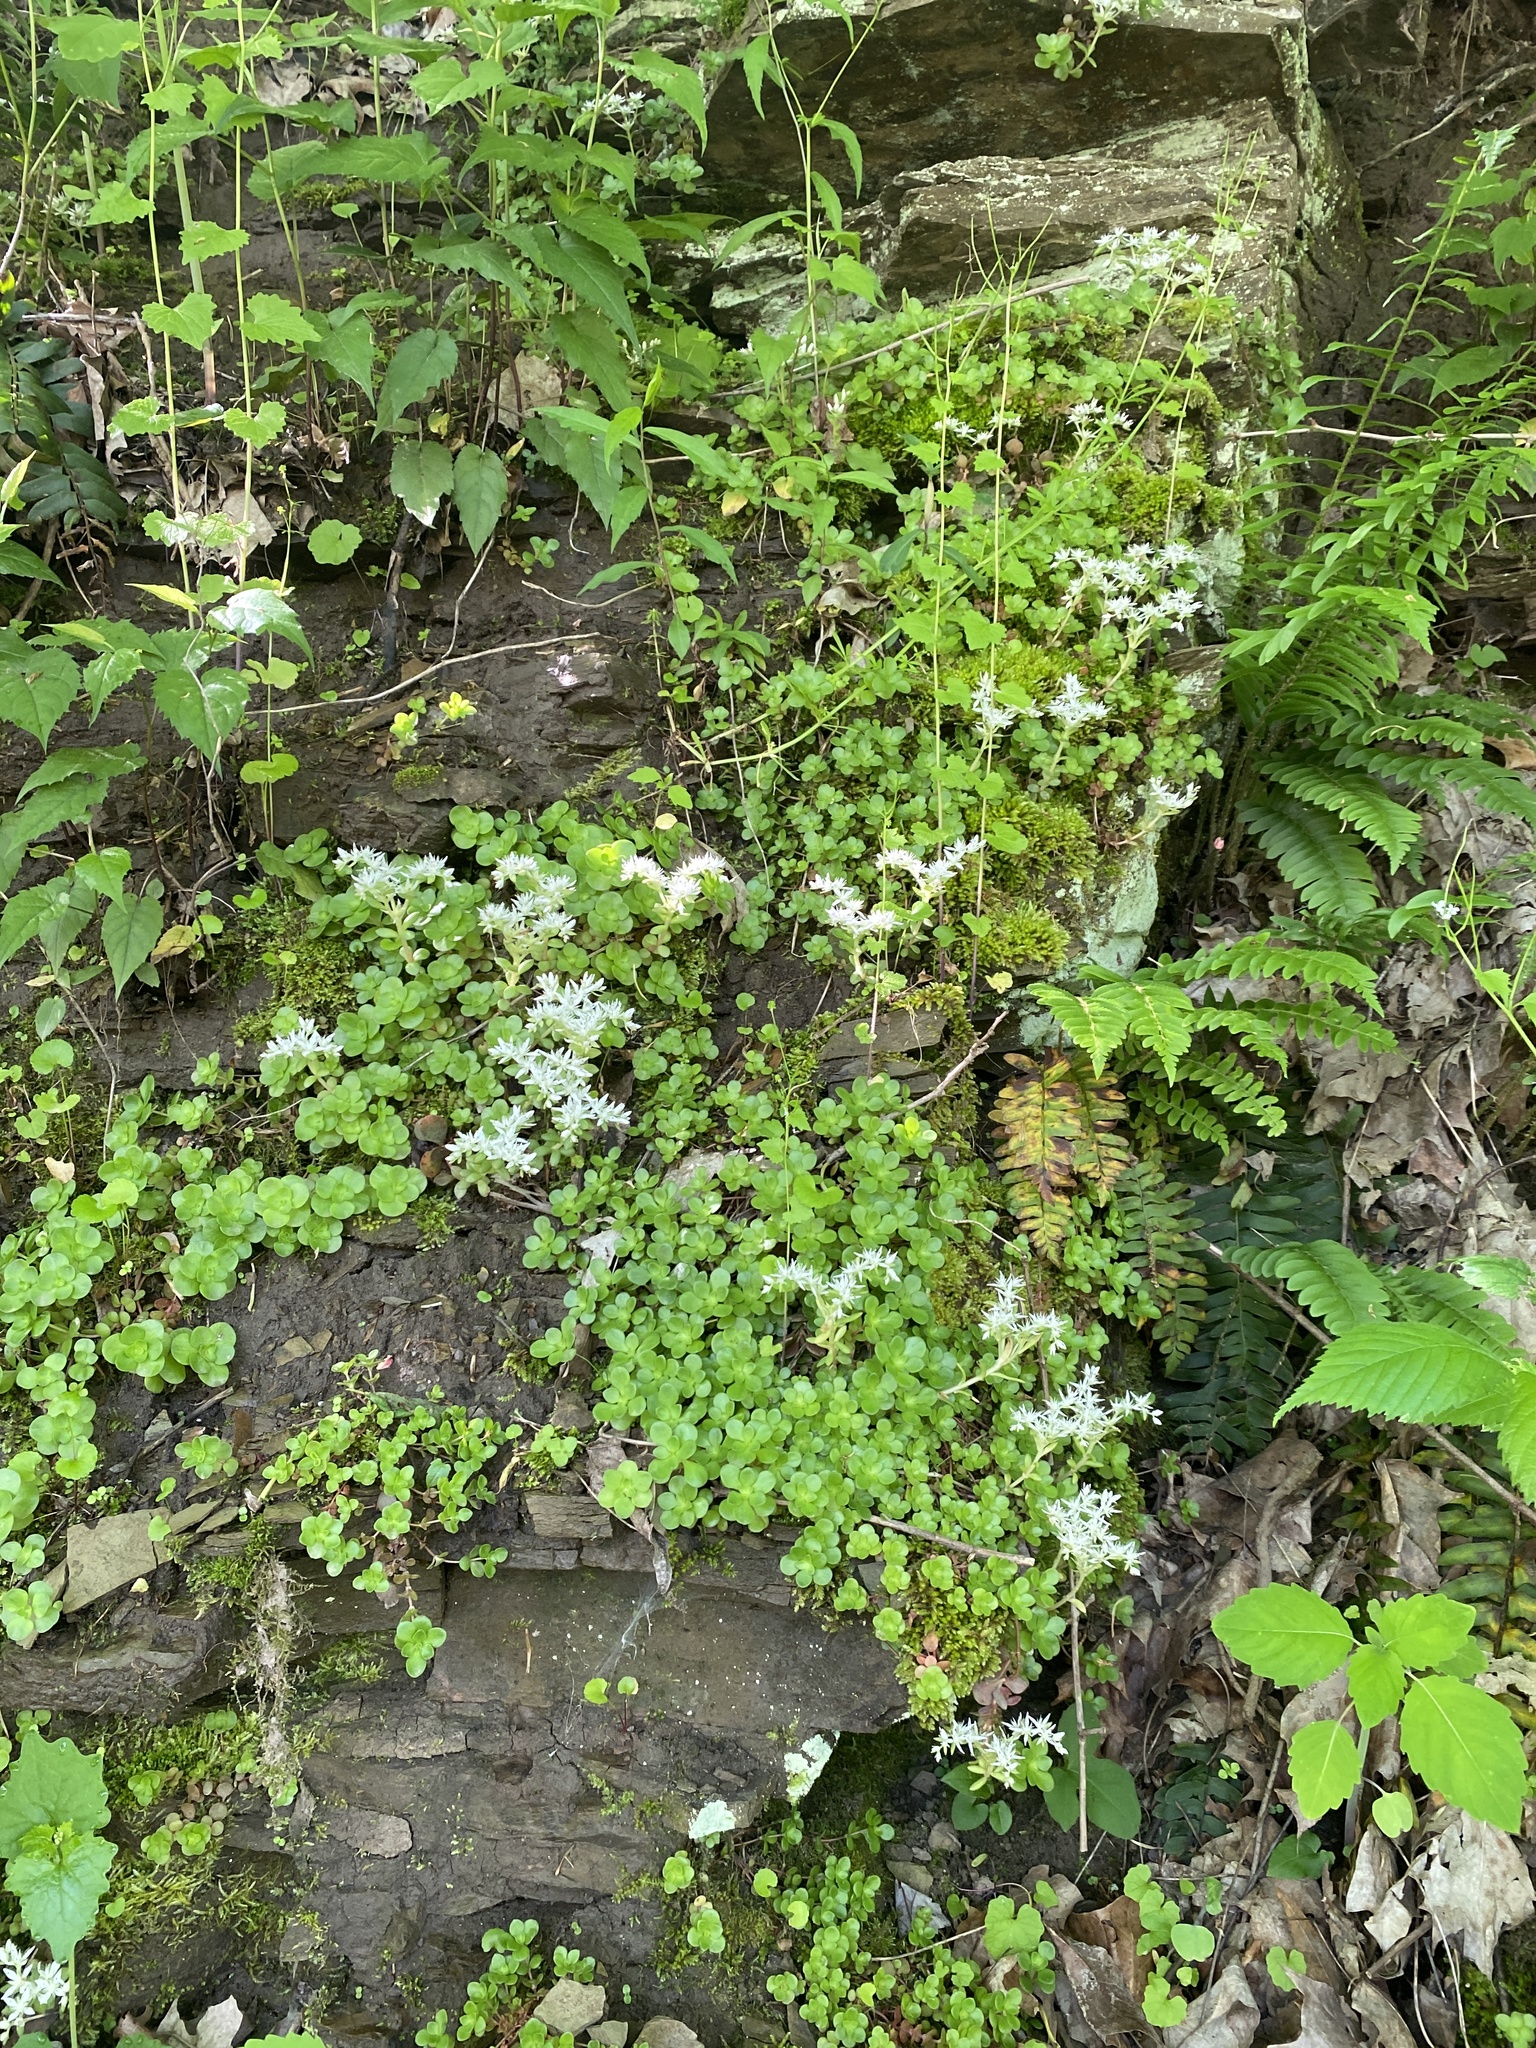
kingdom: Plantae
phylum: Tracheophyta
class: Magnoliopsida
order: Saxifragales
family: Crassulaceae
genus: Sedum
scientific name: Sedum ternatum
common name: Wild stonecrop
